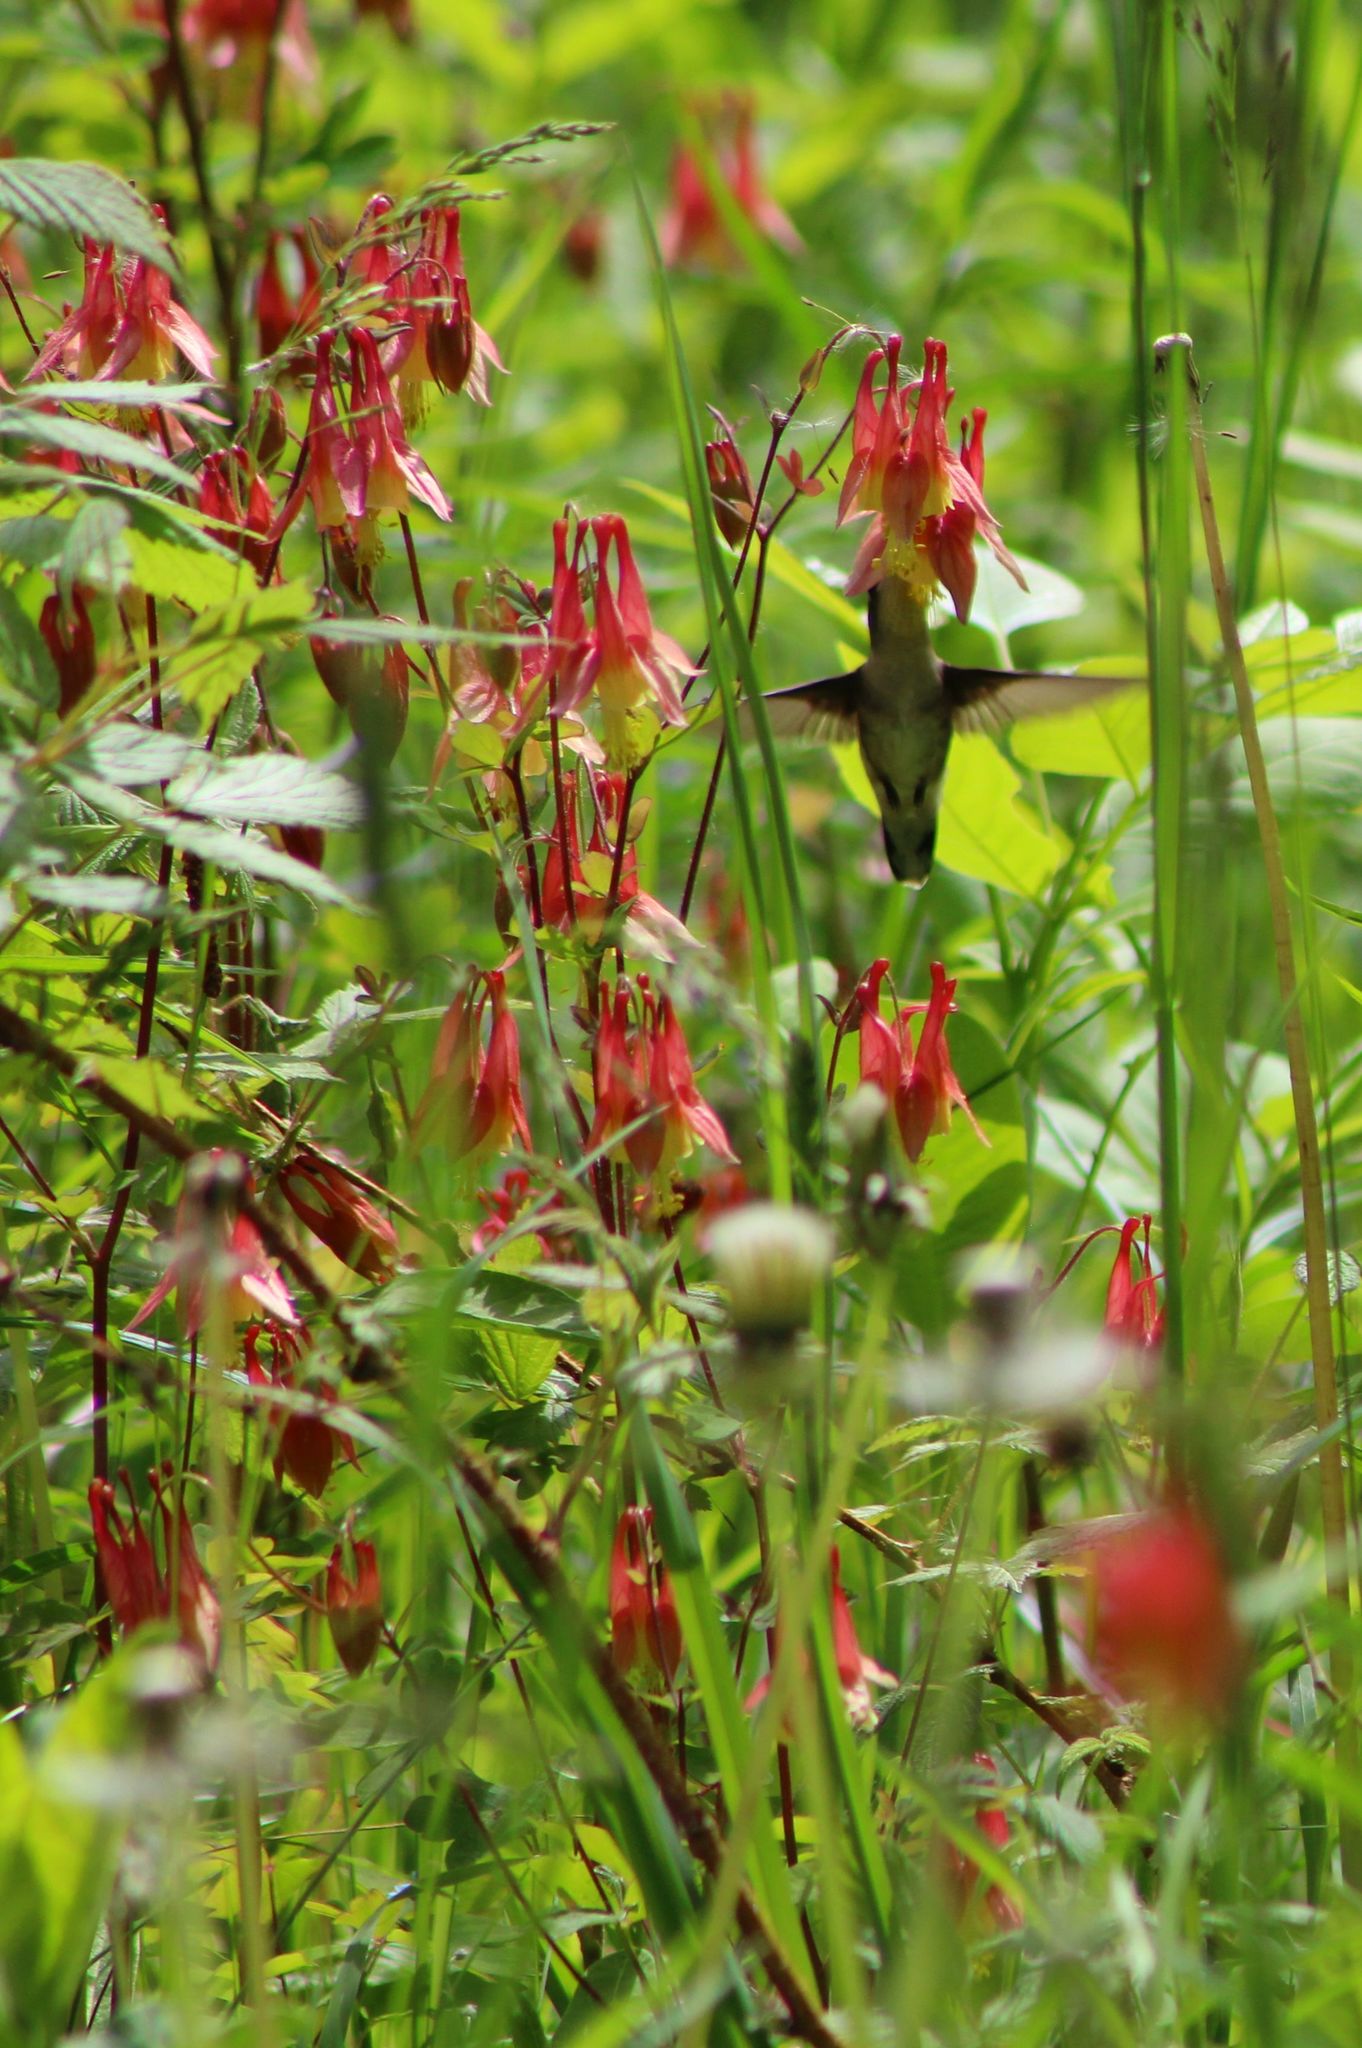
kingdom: Animalia
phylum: Chordata
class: Aves
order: Apodiformes
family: Trochilidae
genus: Archilochus
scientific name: Archilochus colubris
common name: Ruby-throated hummingbird
